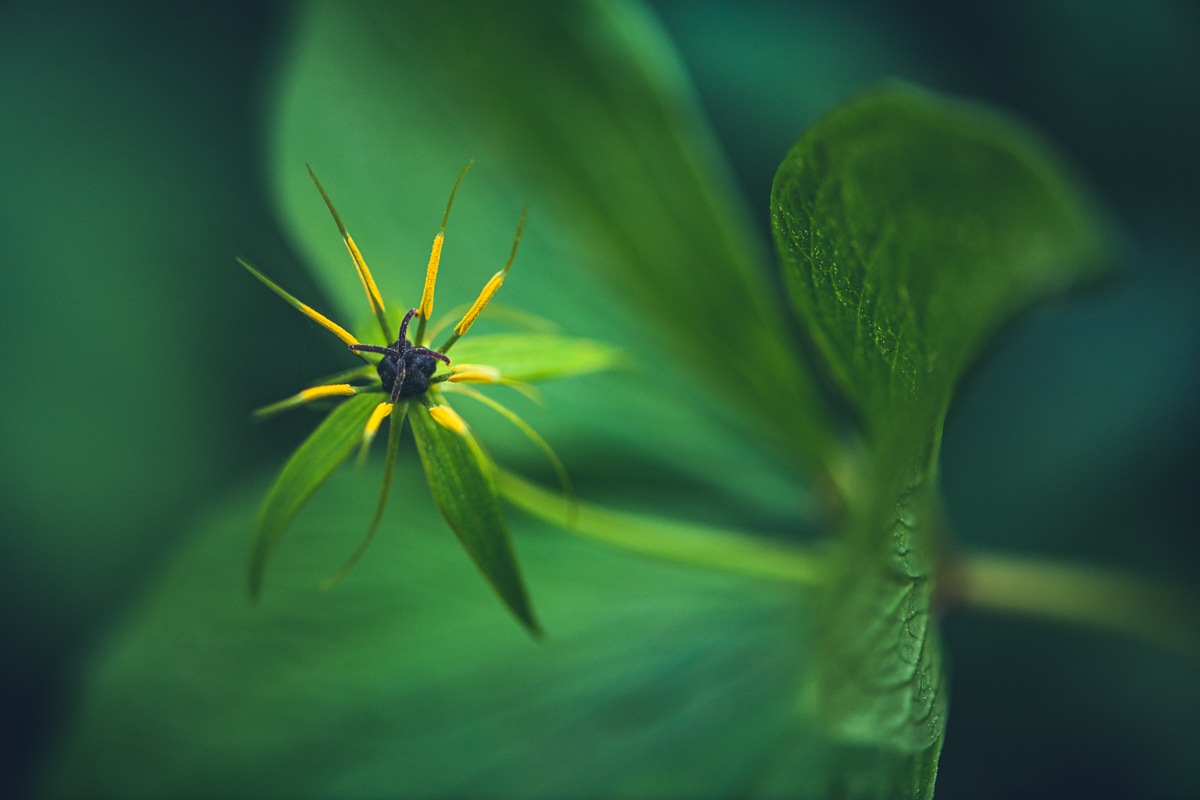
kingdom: Plantae
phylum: Tracheophyta
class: Liliopsida
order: Liliales
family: Melanthiaceae
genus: Paris
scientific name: Paris quadrifolia
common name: Herb-paris
